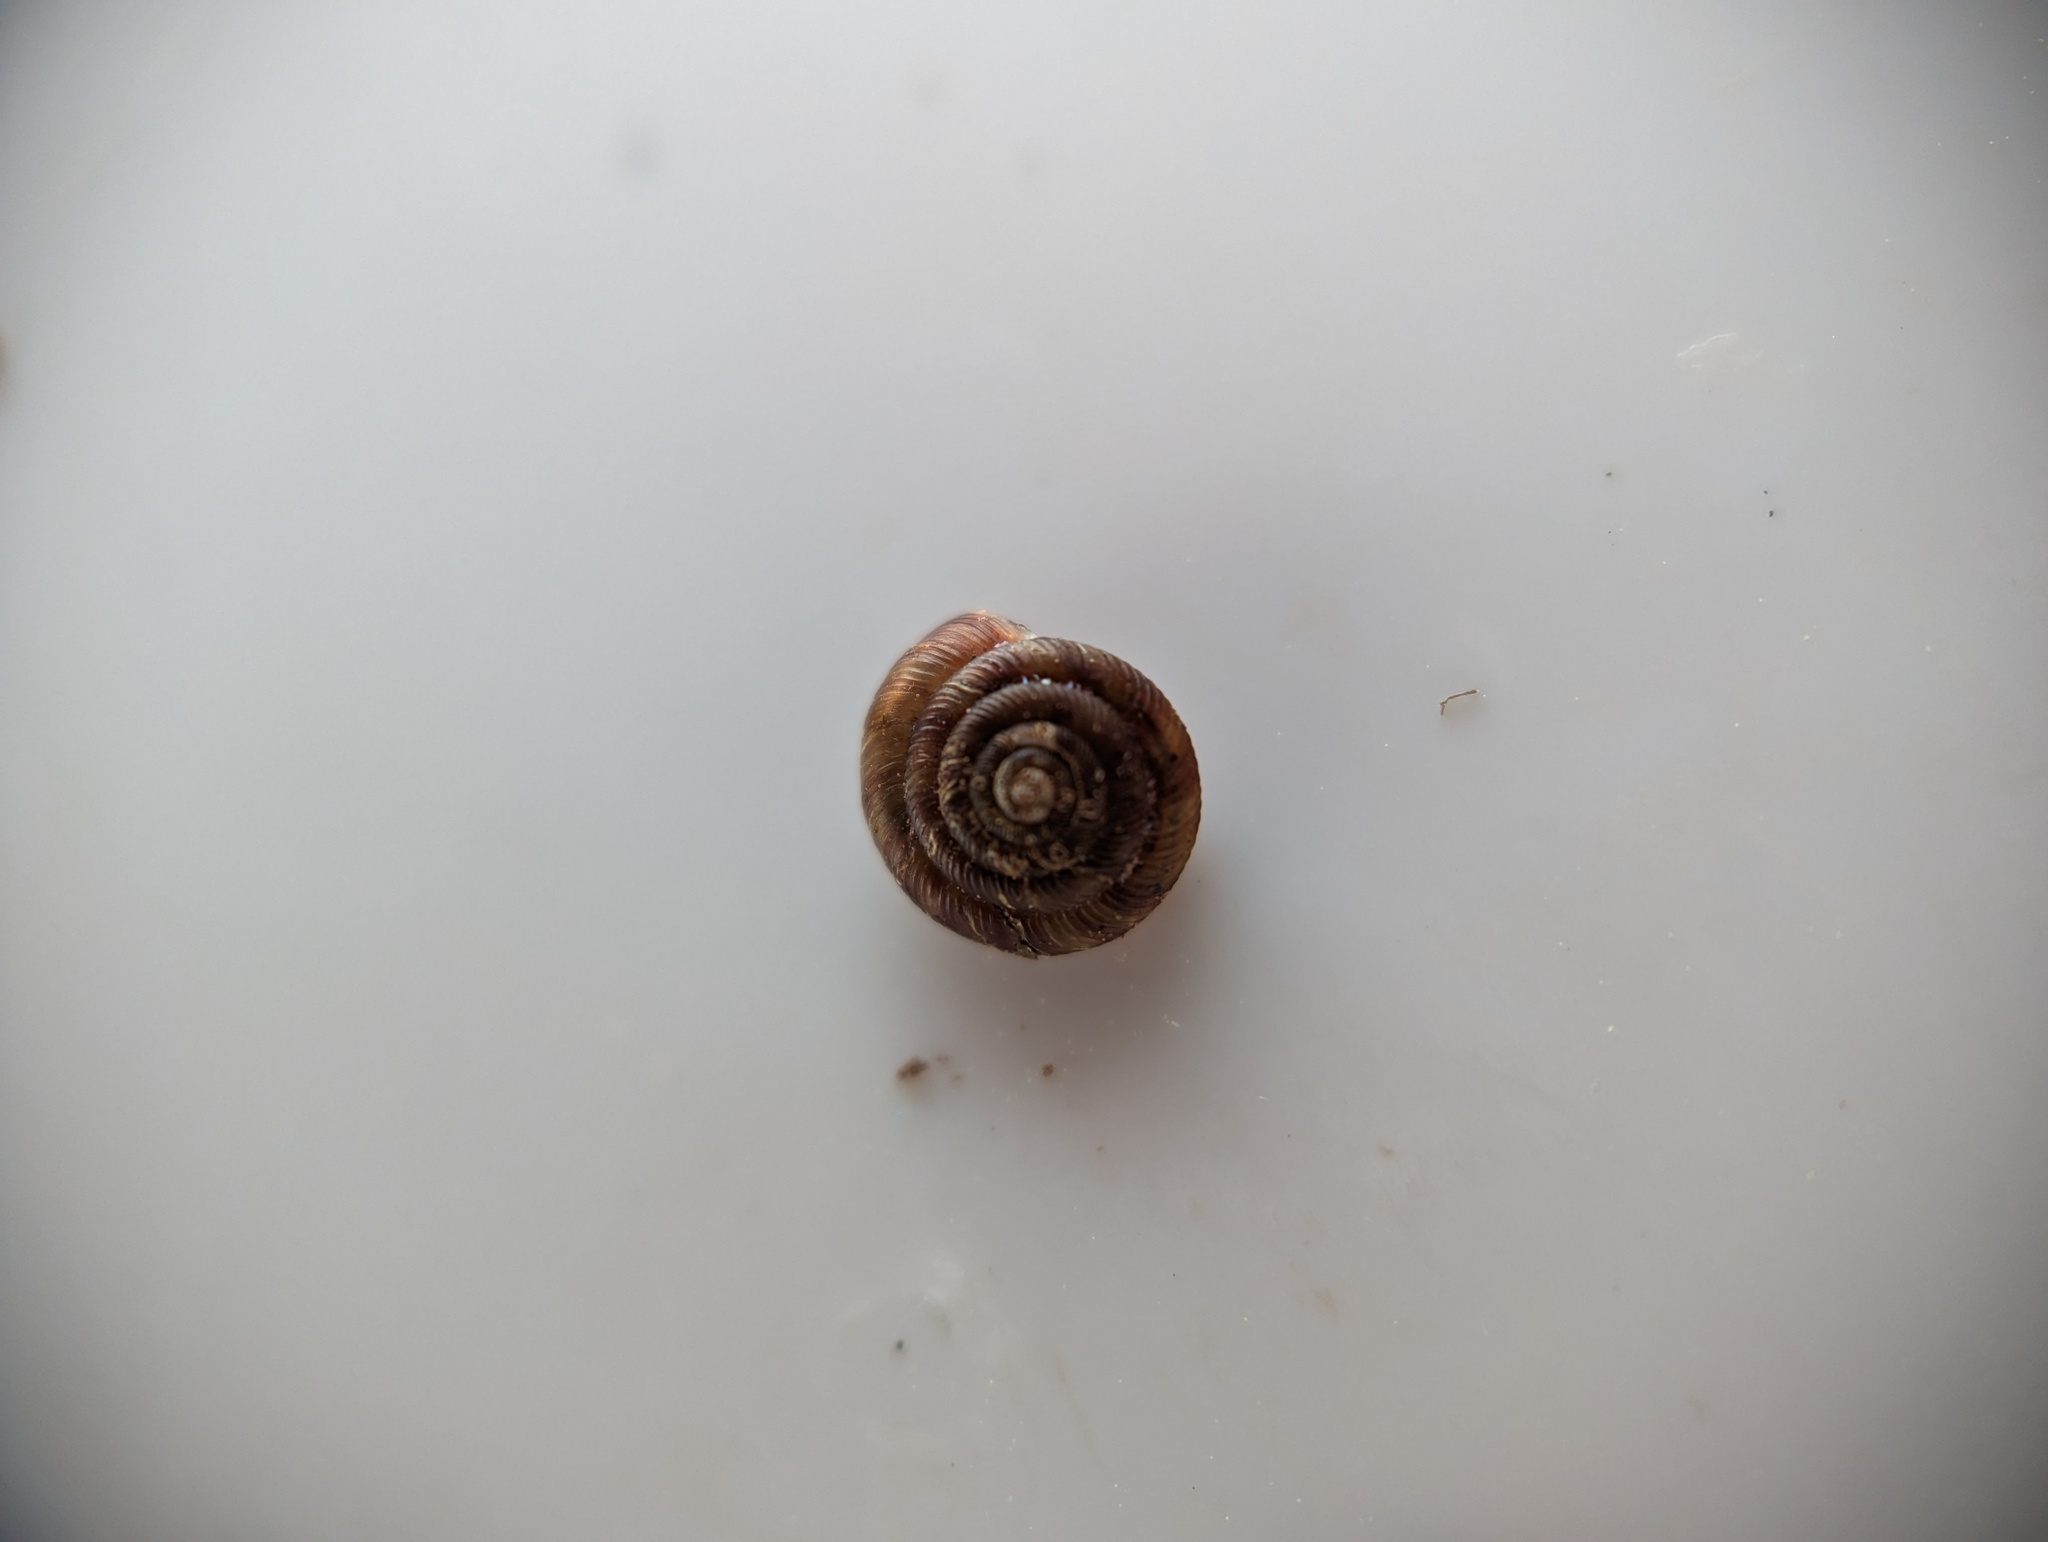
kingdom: Animalia
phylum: Mollusca
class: Gastropoda
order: Stylommatophora
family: Discidae
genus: Discus
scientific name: Discus rotundatus
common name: Rounded snail
